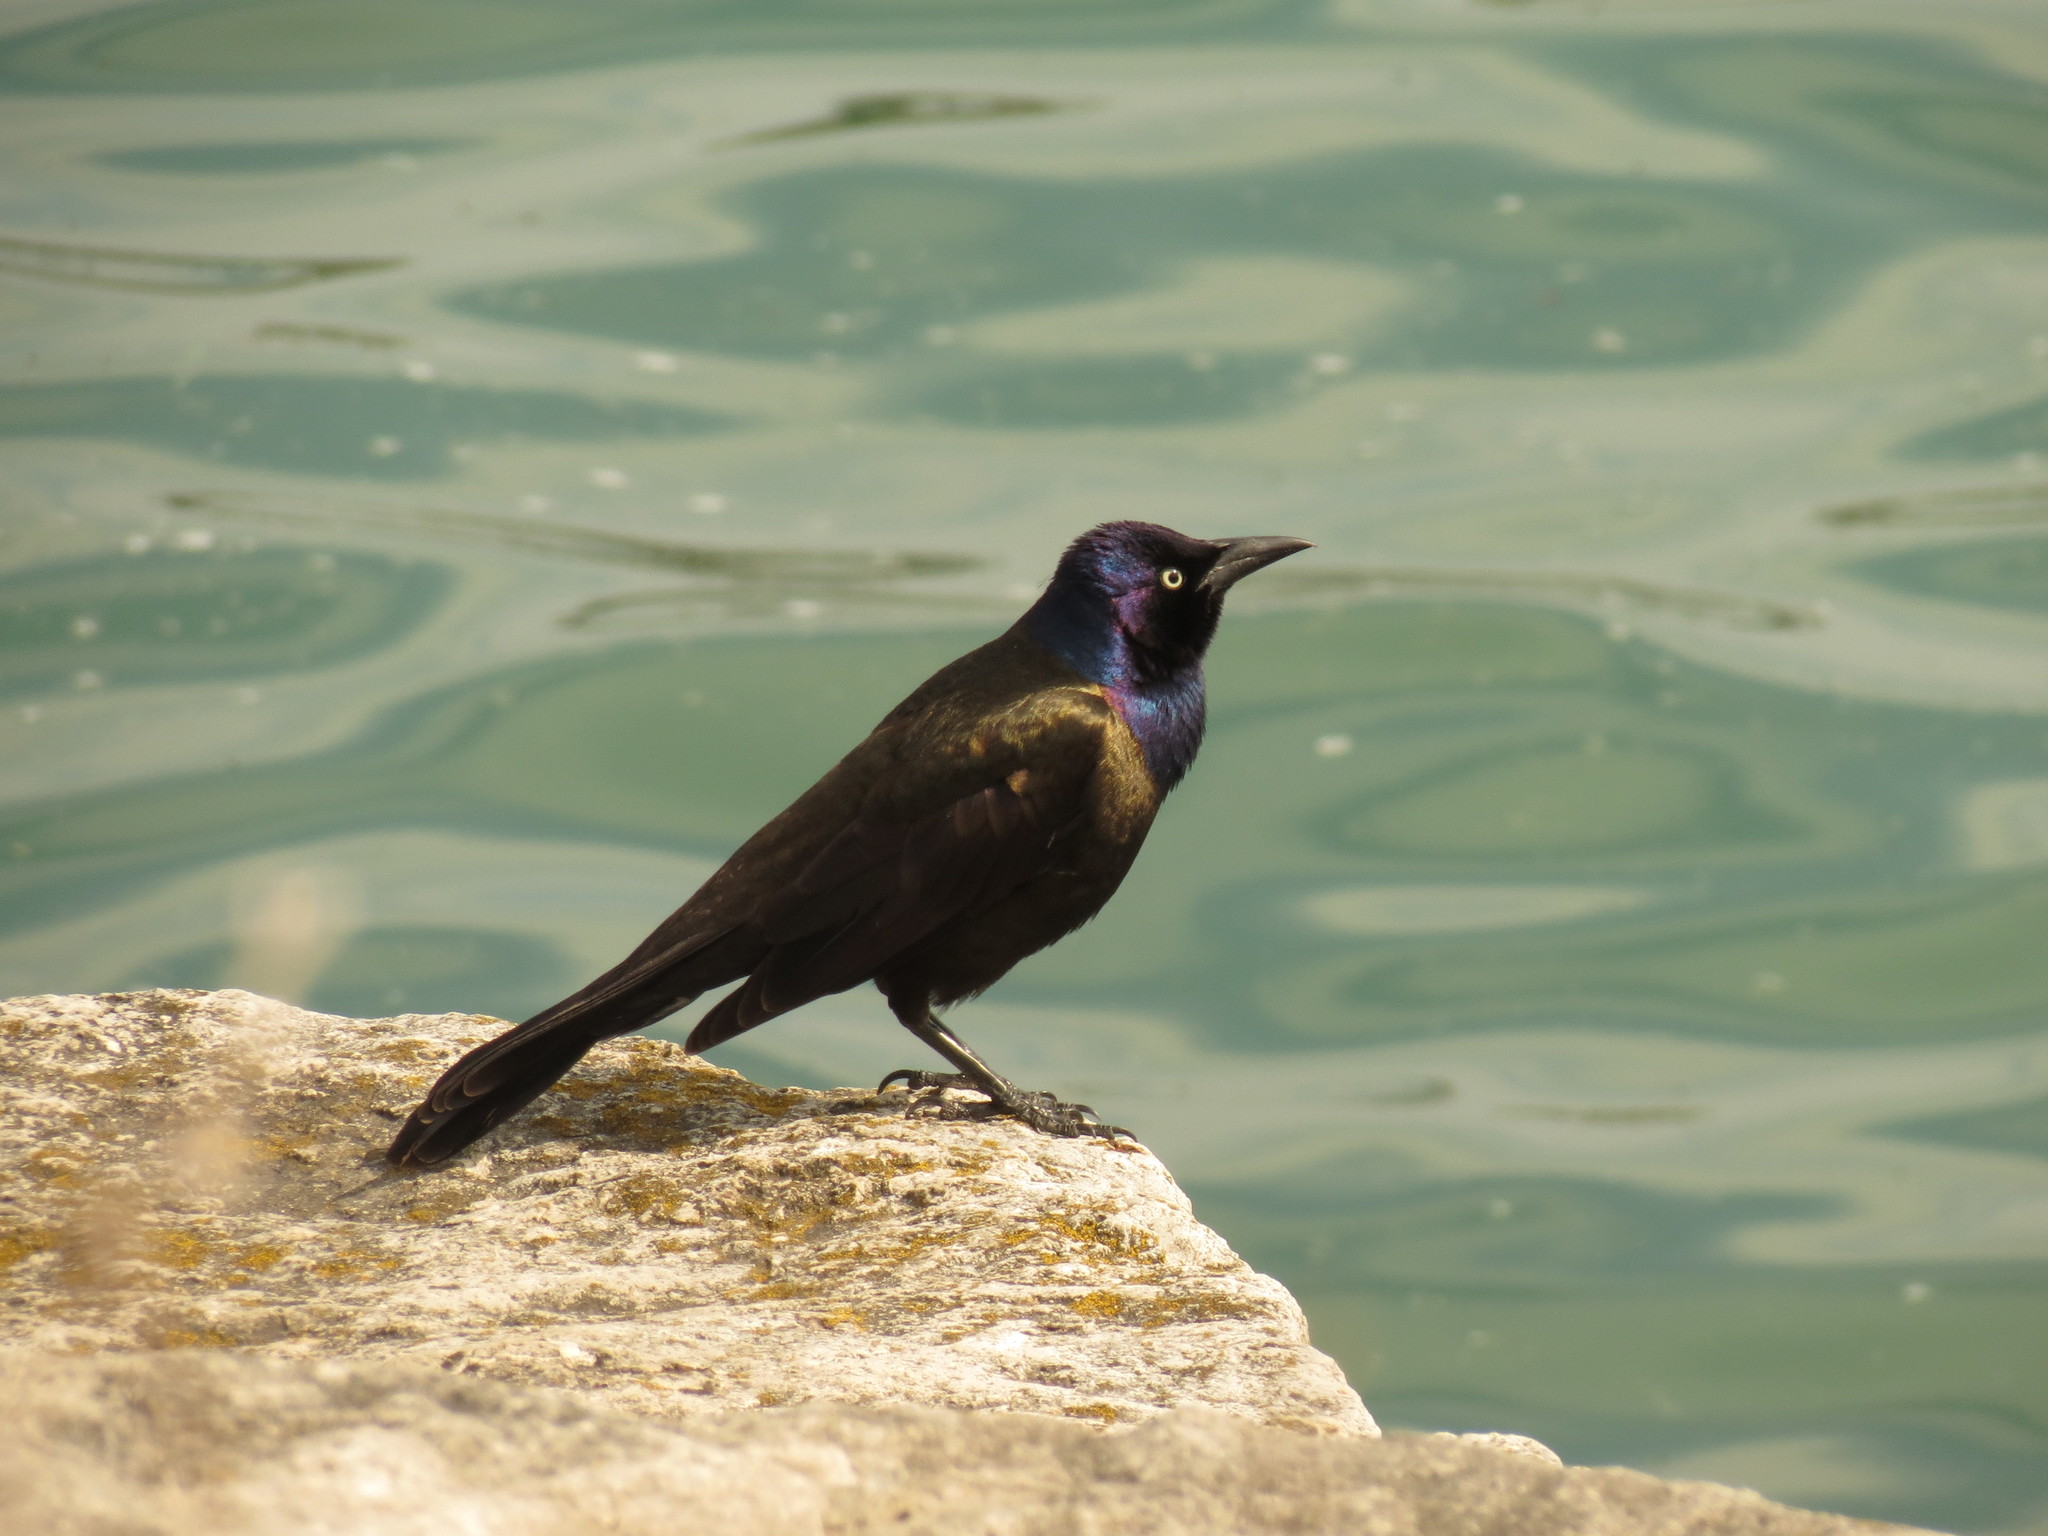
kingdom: Animalia
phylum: Chordata
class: Aves
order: Passeriformes
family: Icteridae
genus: Quiscalus
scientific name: Quiscalus quiscula
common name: Common grackle
